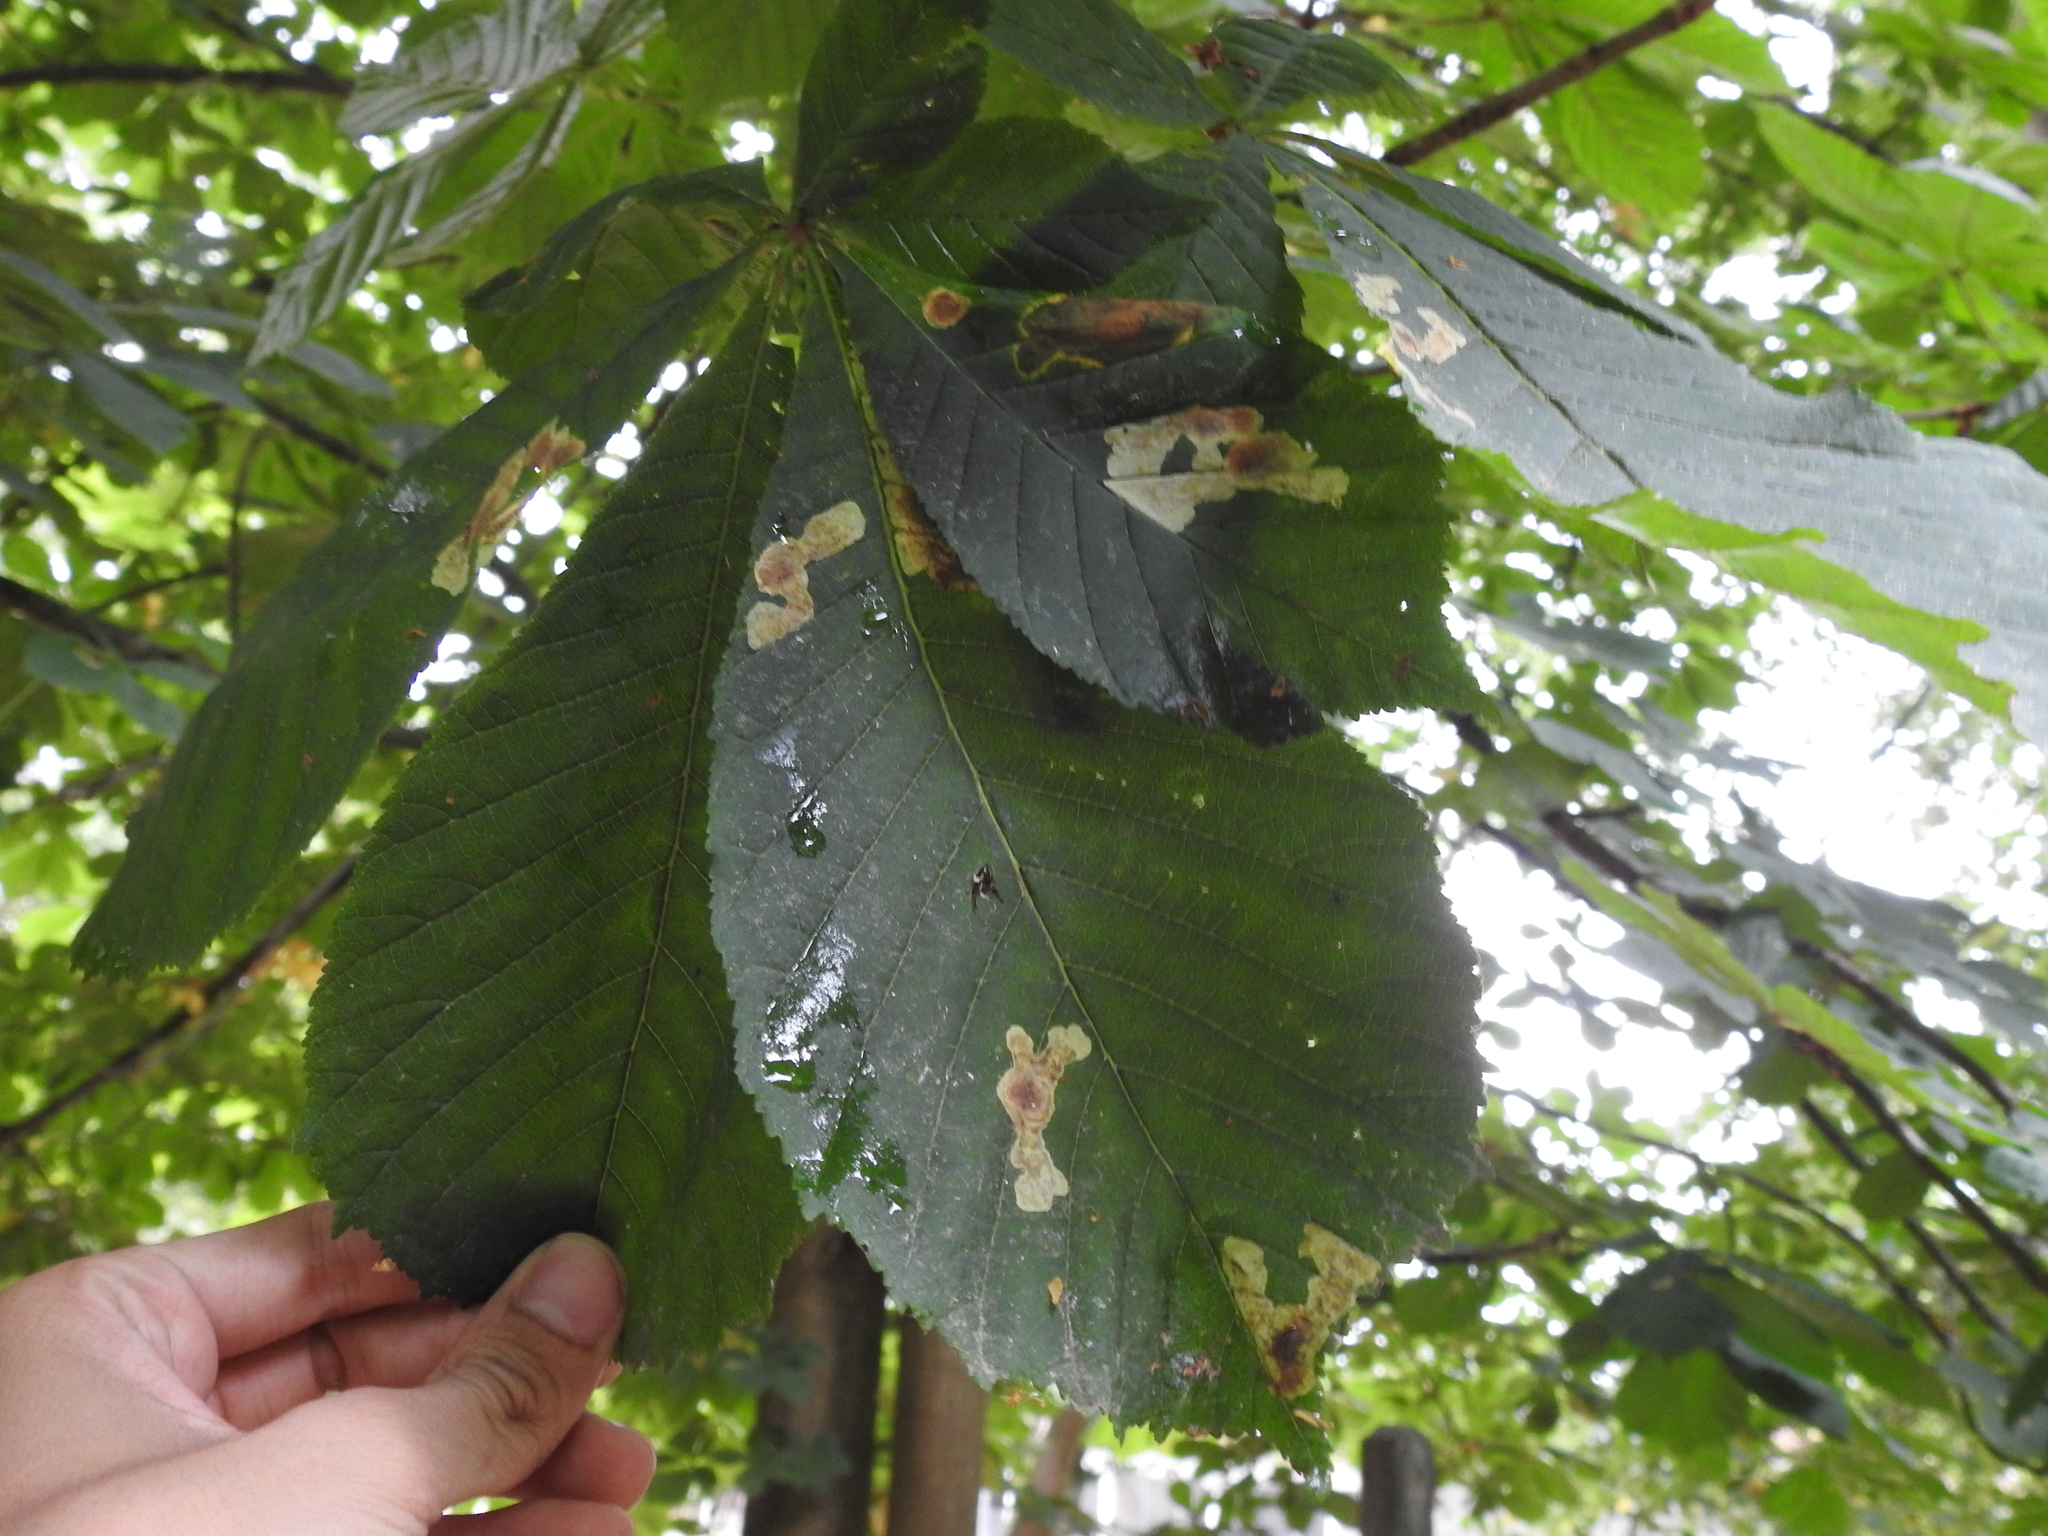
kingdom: Animalia
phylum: Arthropoda
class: Insecta
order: Lepidoptera
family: Gracillariidae
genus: Cameraria
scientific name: Cameraria ohridella
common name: Horse-chestnut leaf-miner
